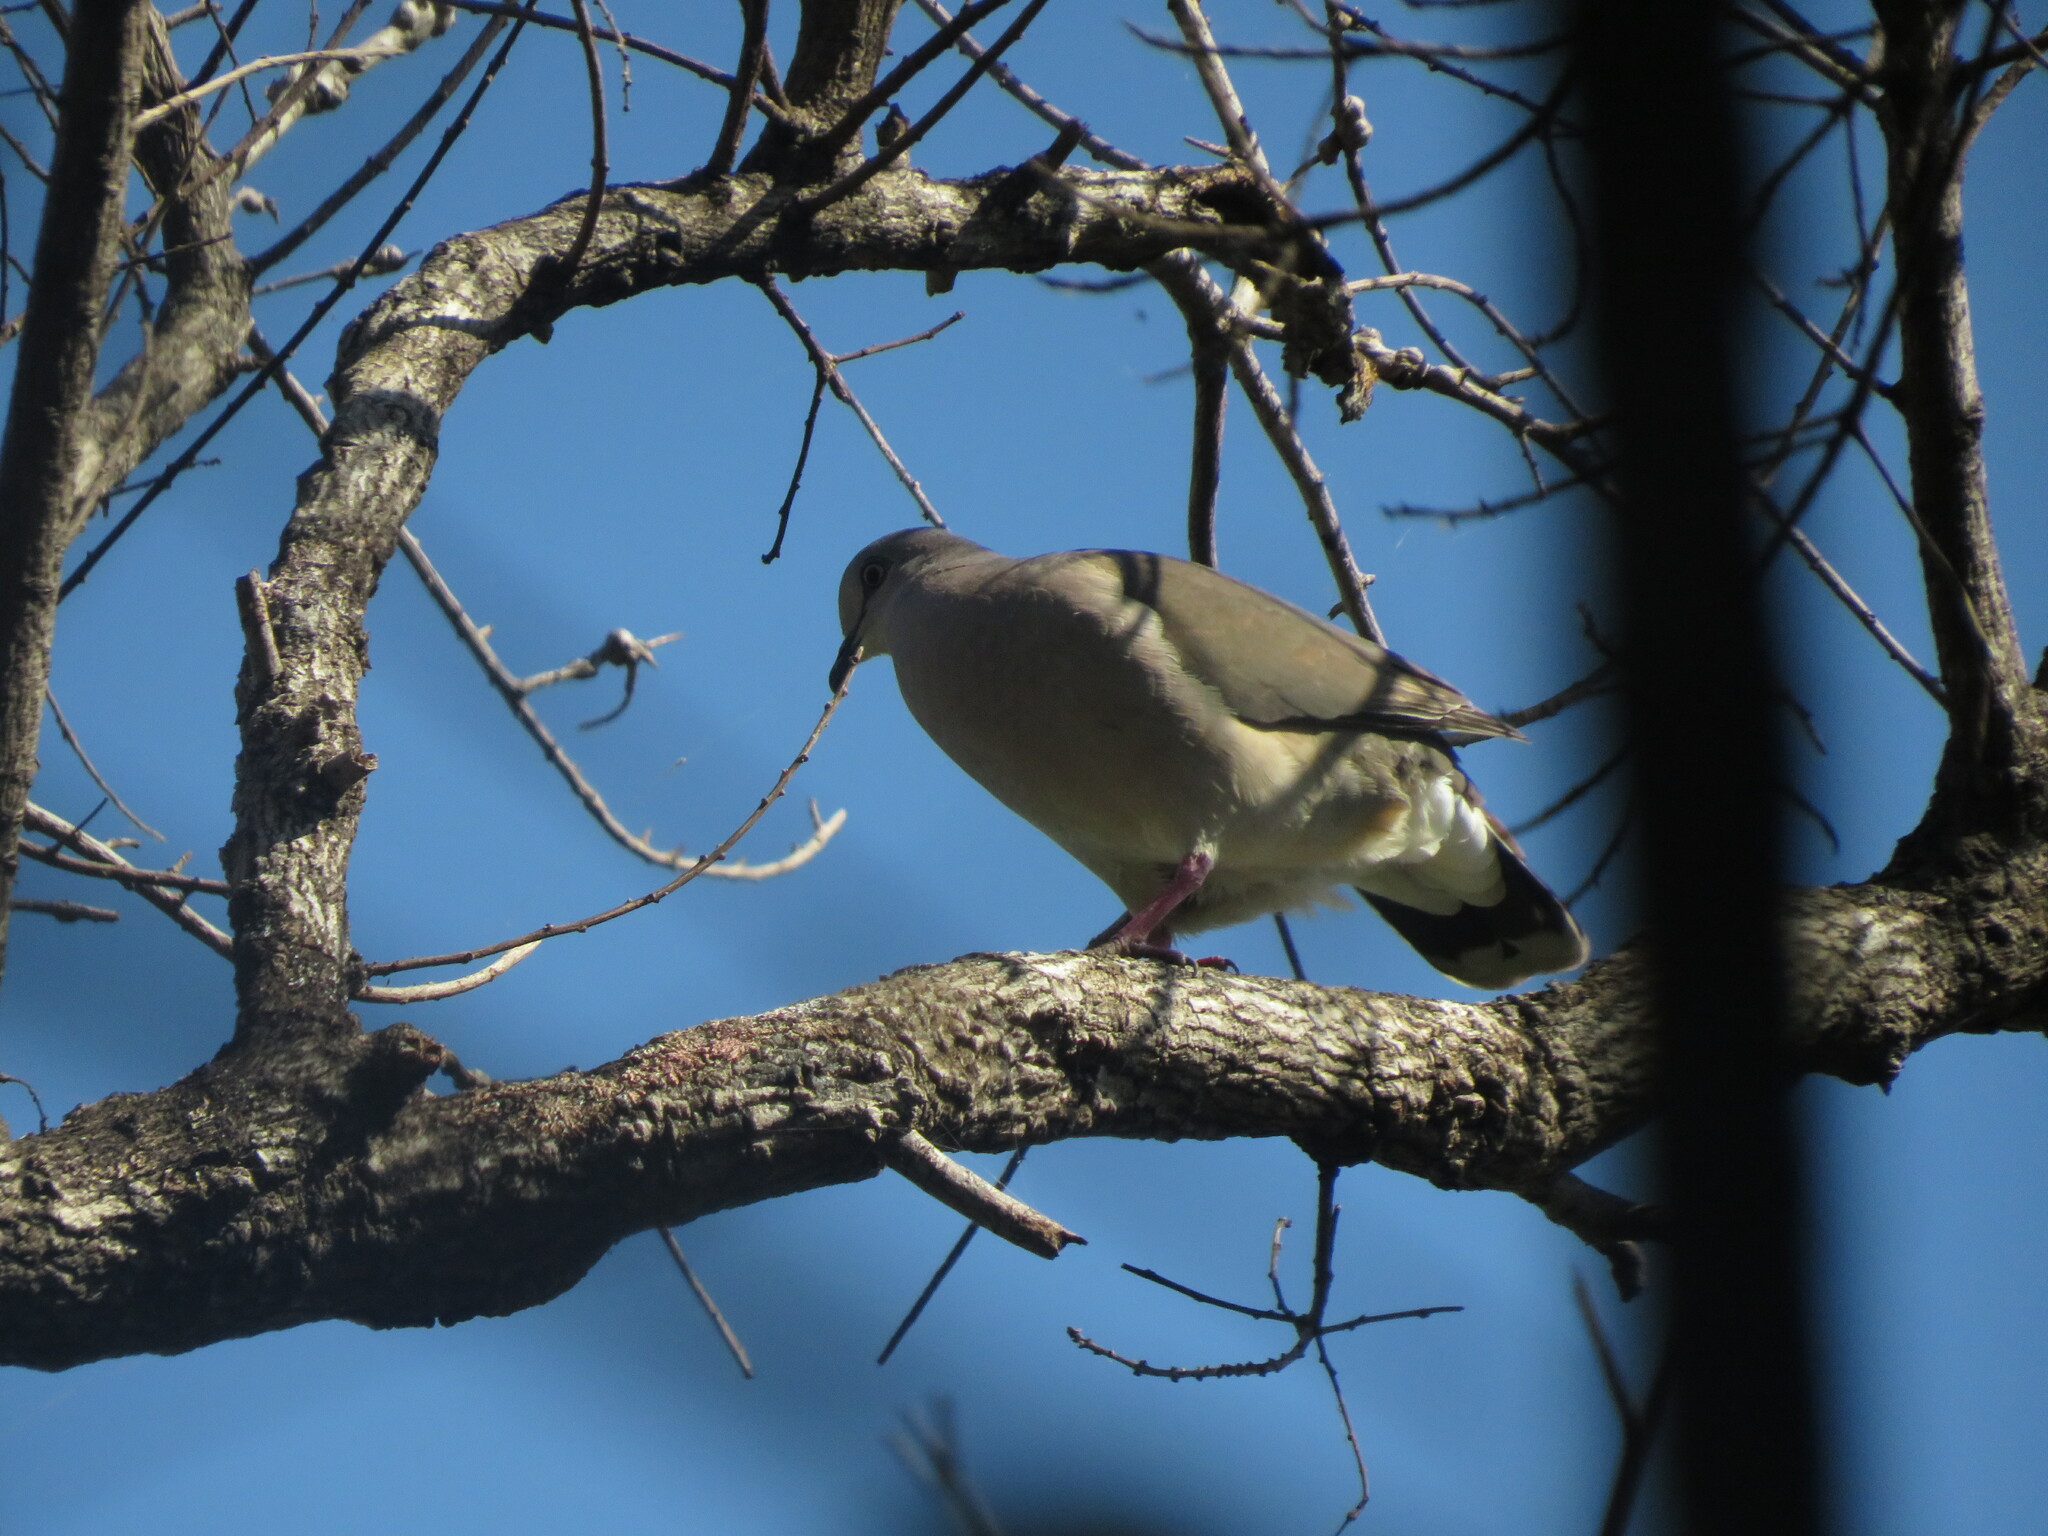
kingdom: Animalia
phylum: Chordata
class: Aves
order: Columbiformes
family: Columbidae
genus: Leptotila
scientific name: Leptotila verreauxi
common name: White-tipped dove
